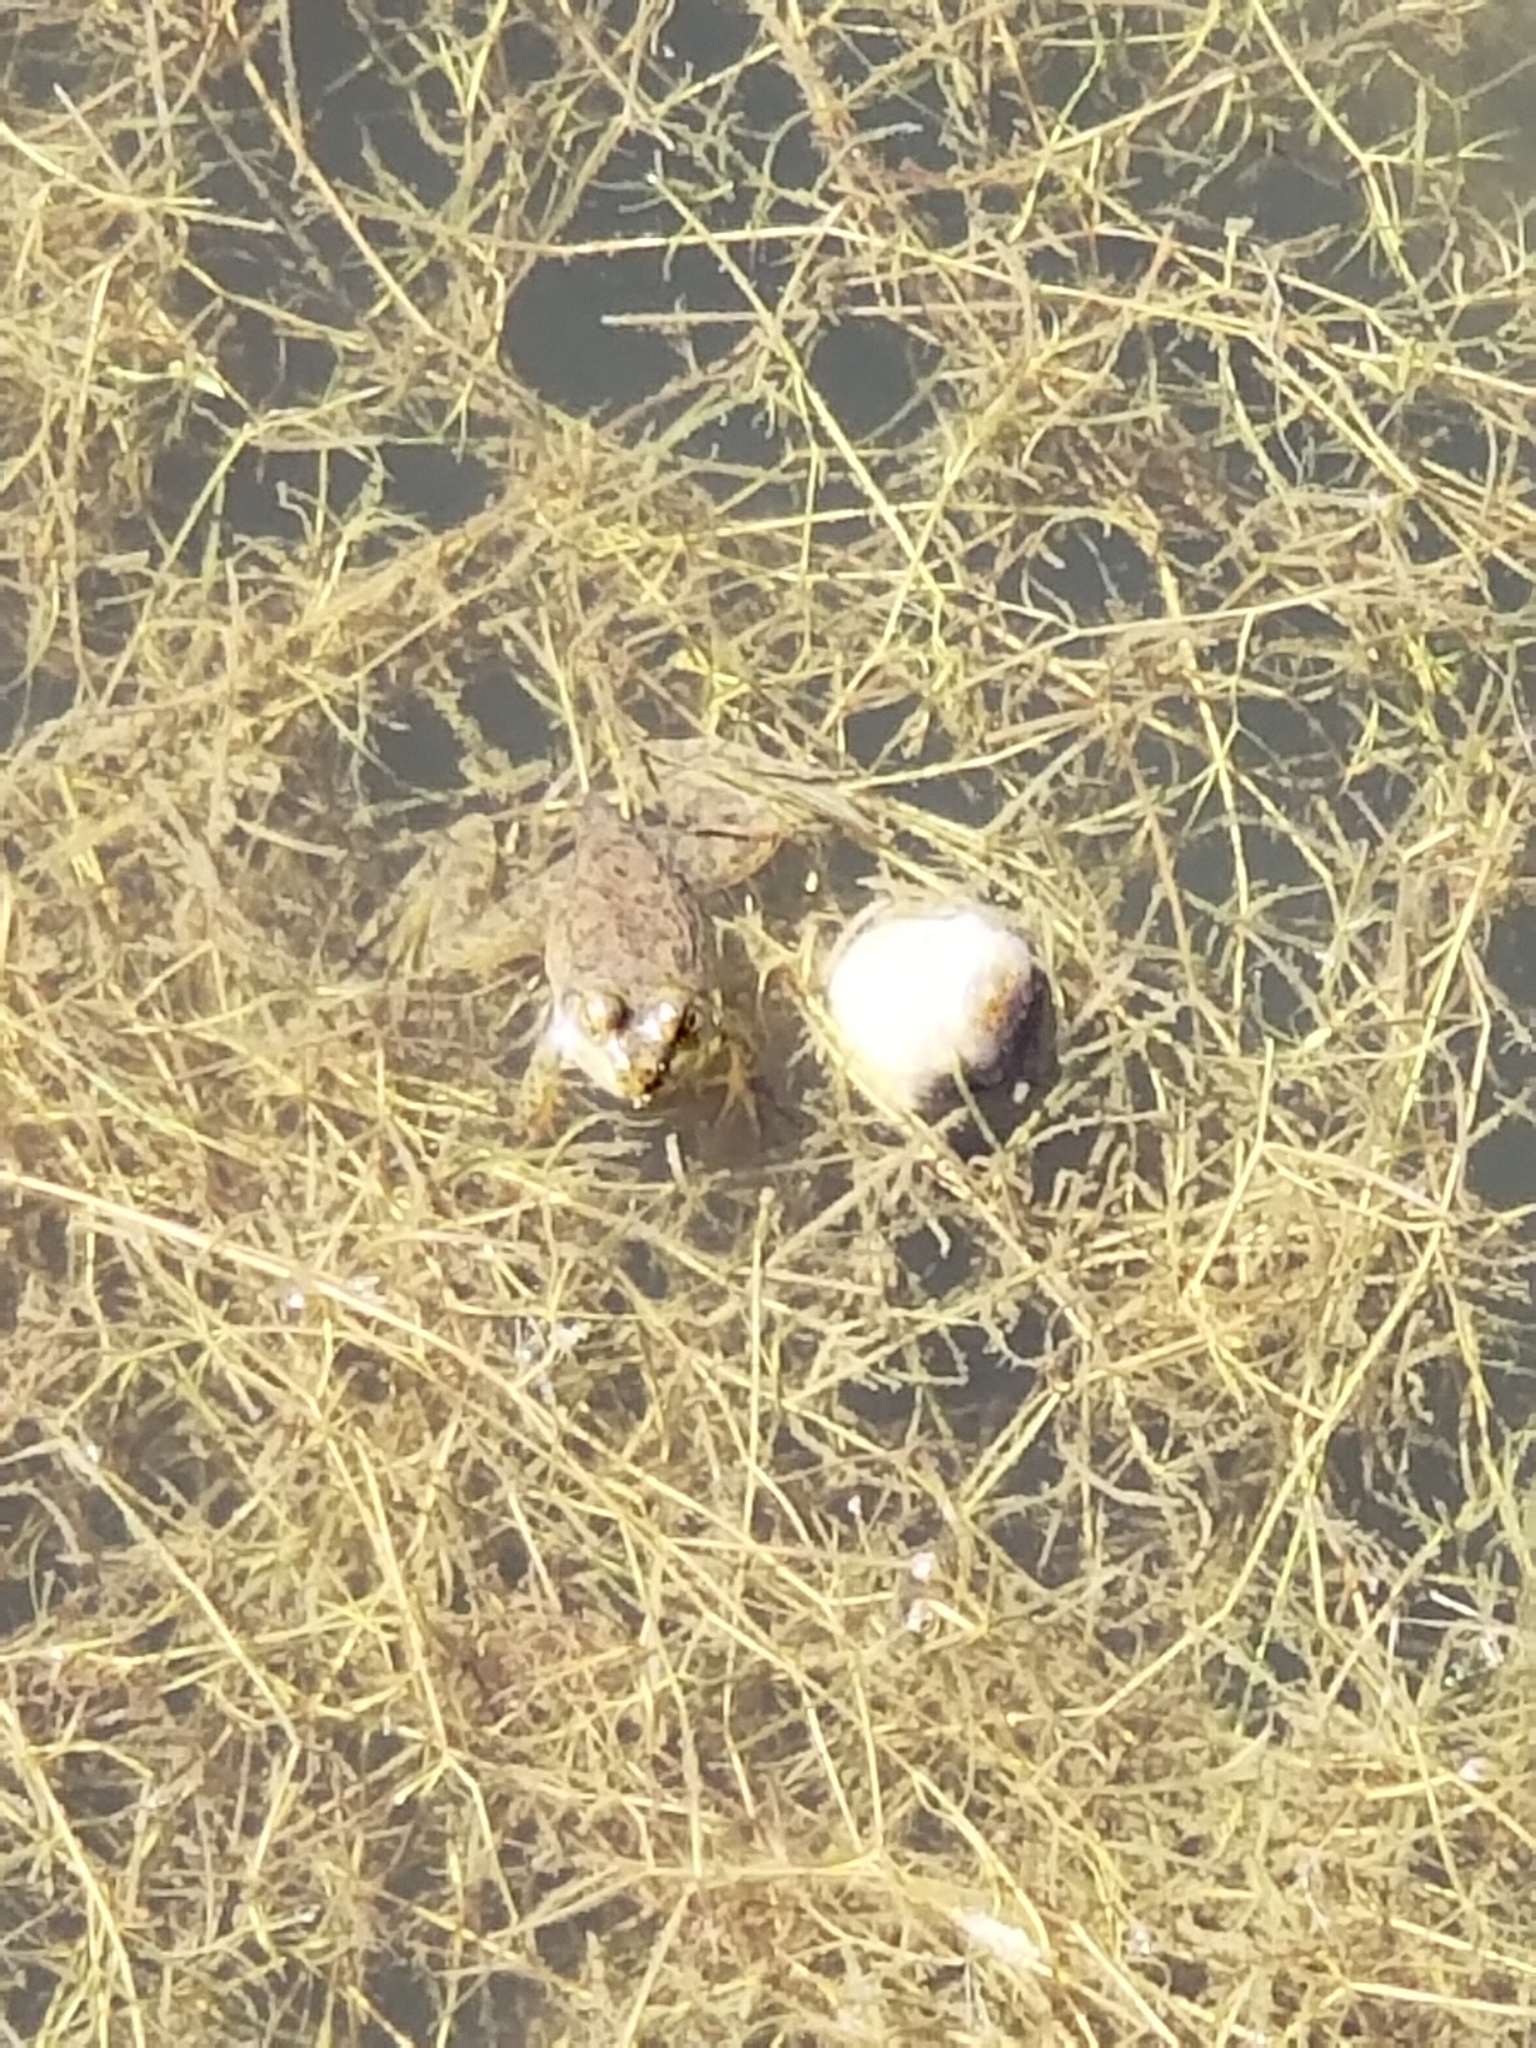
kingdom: Animalia
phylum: Chordata
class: Amphibia
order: Anura
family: Ranidae
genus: Lithobates
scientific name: Lithobates catesbeianus
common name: American bullfrog
